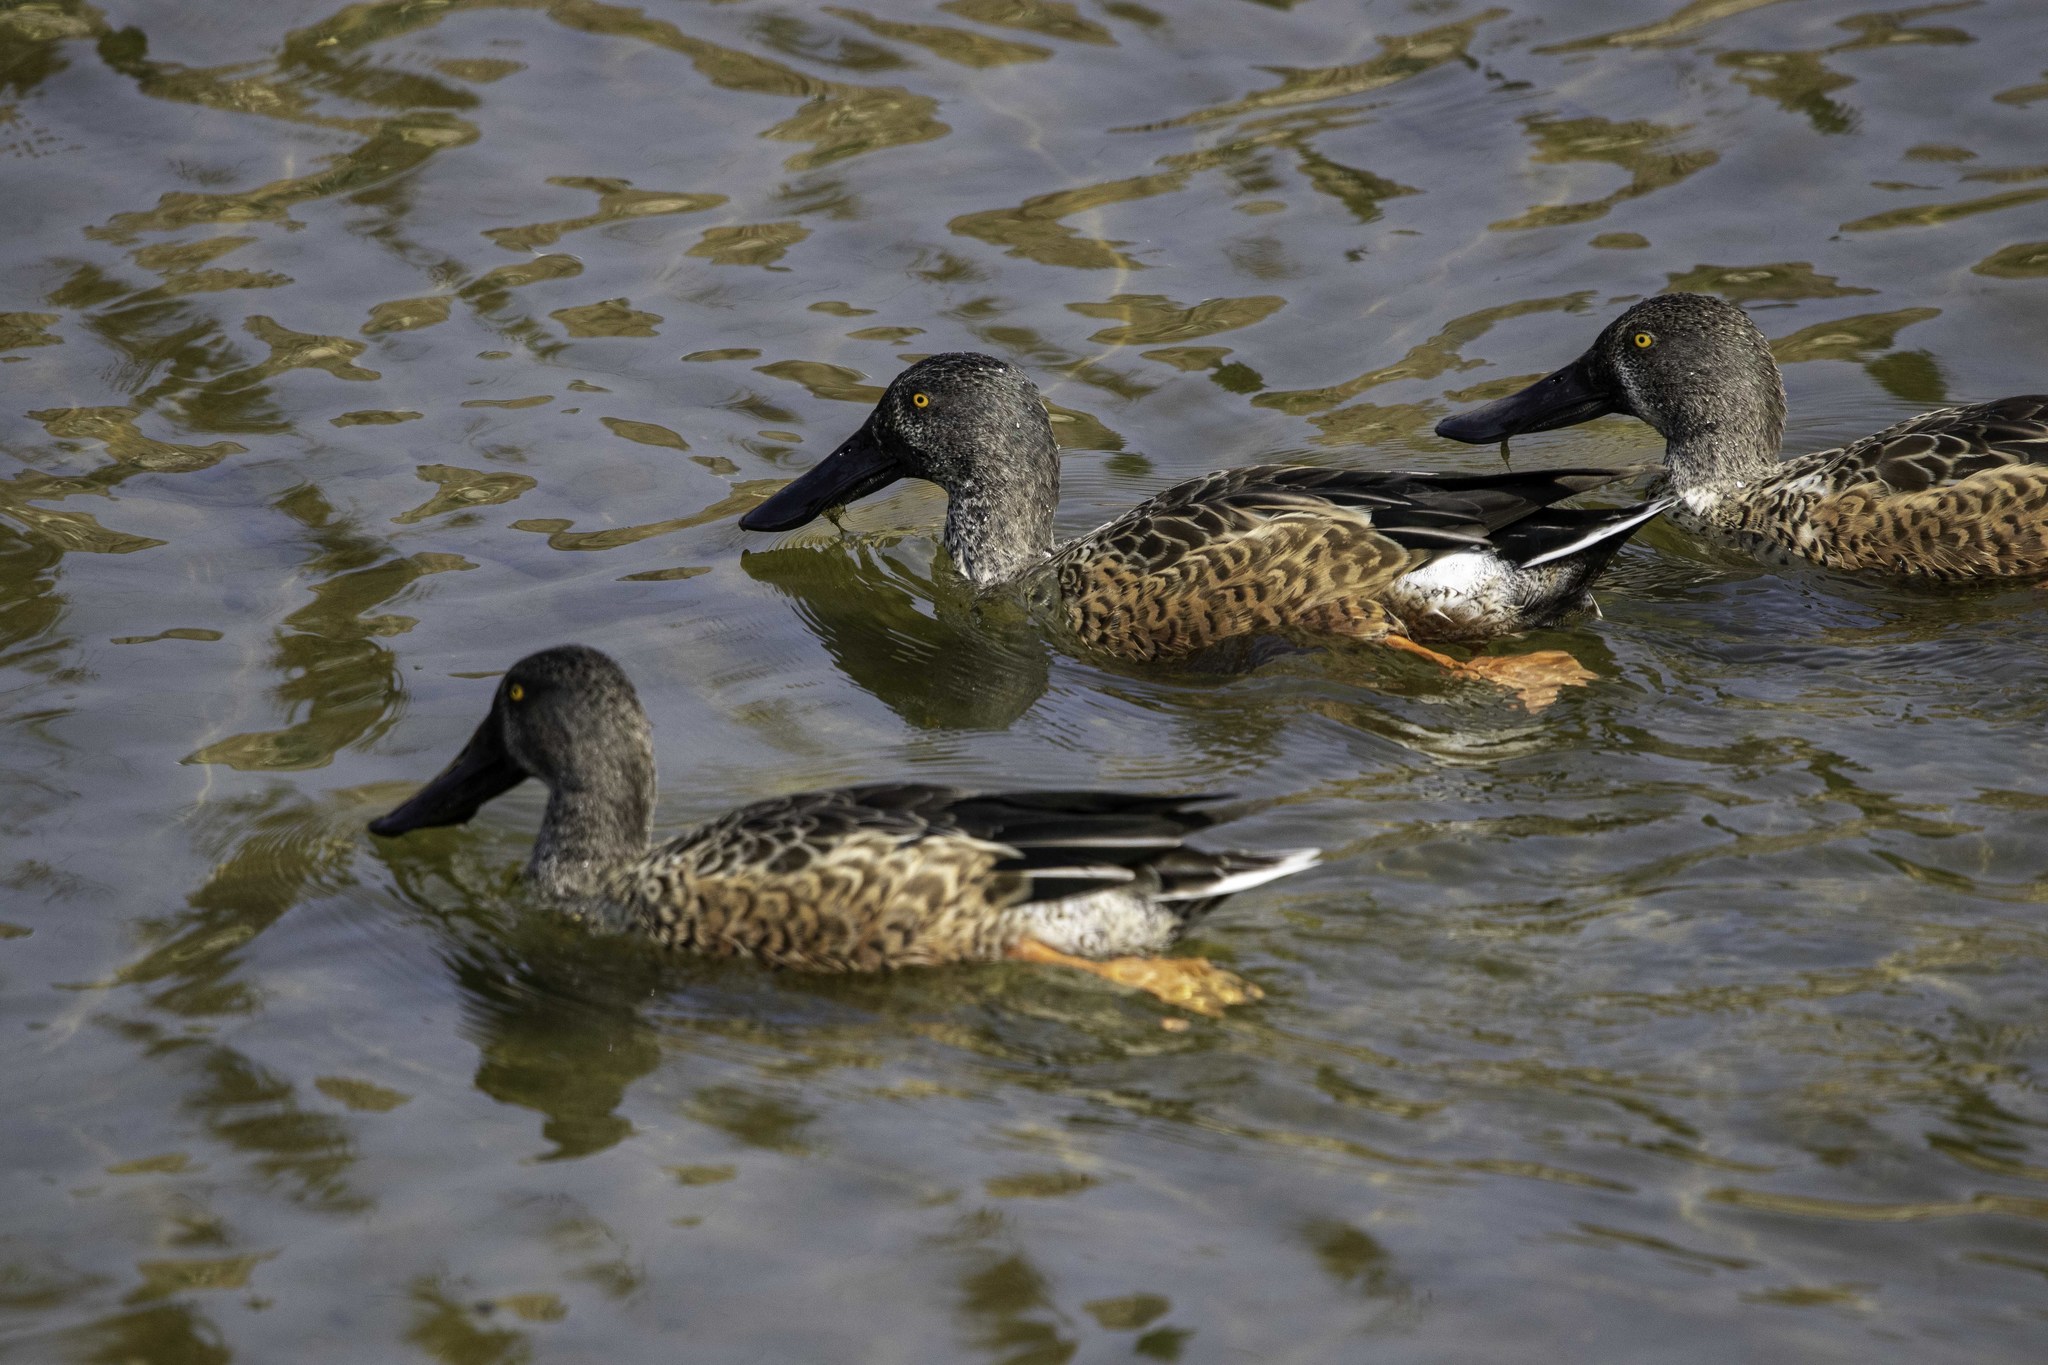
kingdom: Animalia
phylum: Chordata
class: Aves
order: Anseriformes
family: Anatidae
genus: Spatula
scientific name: Spatula clypeata
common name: Northern shoveler
